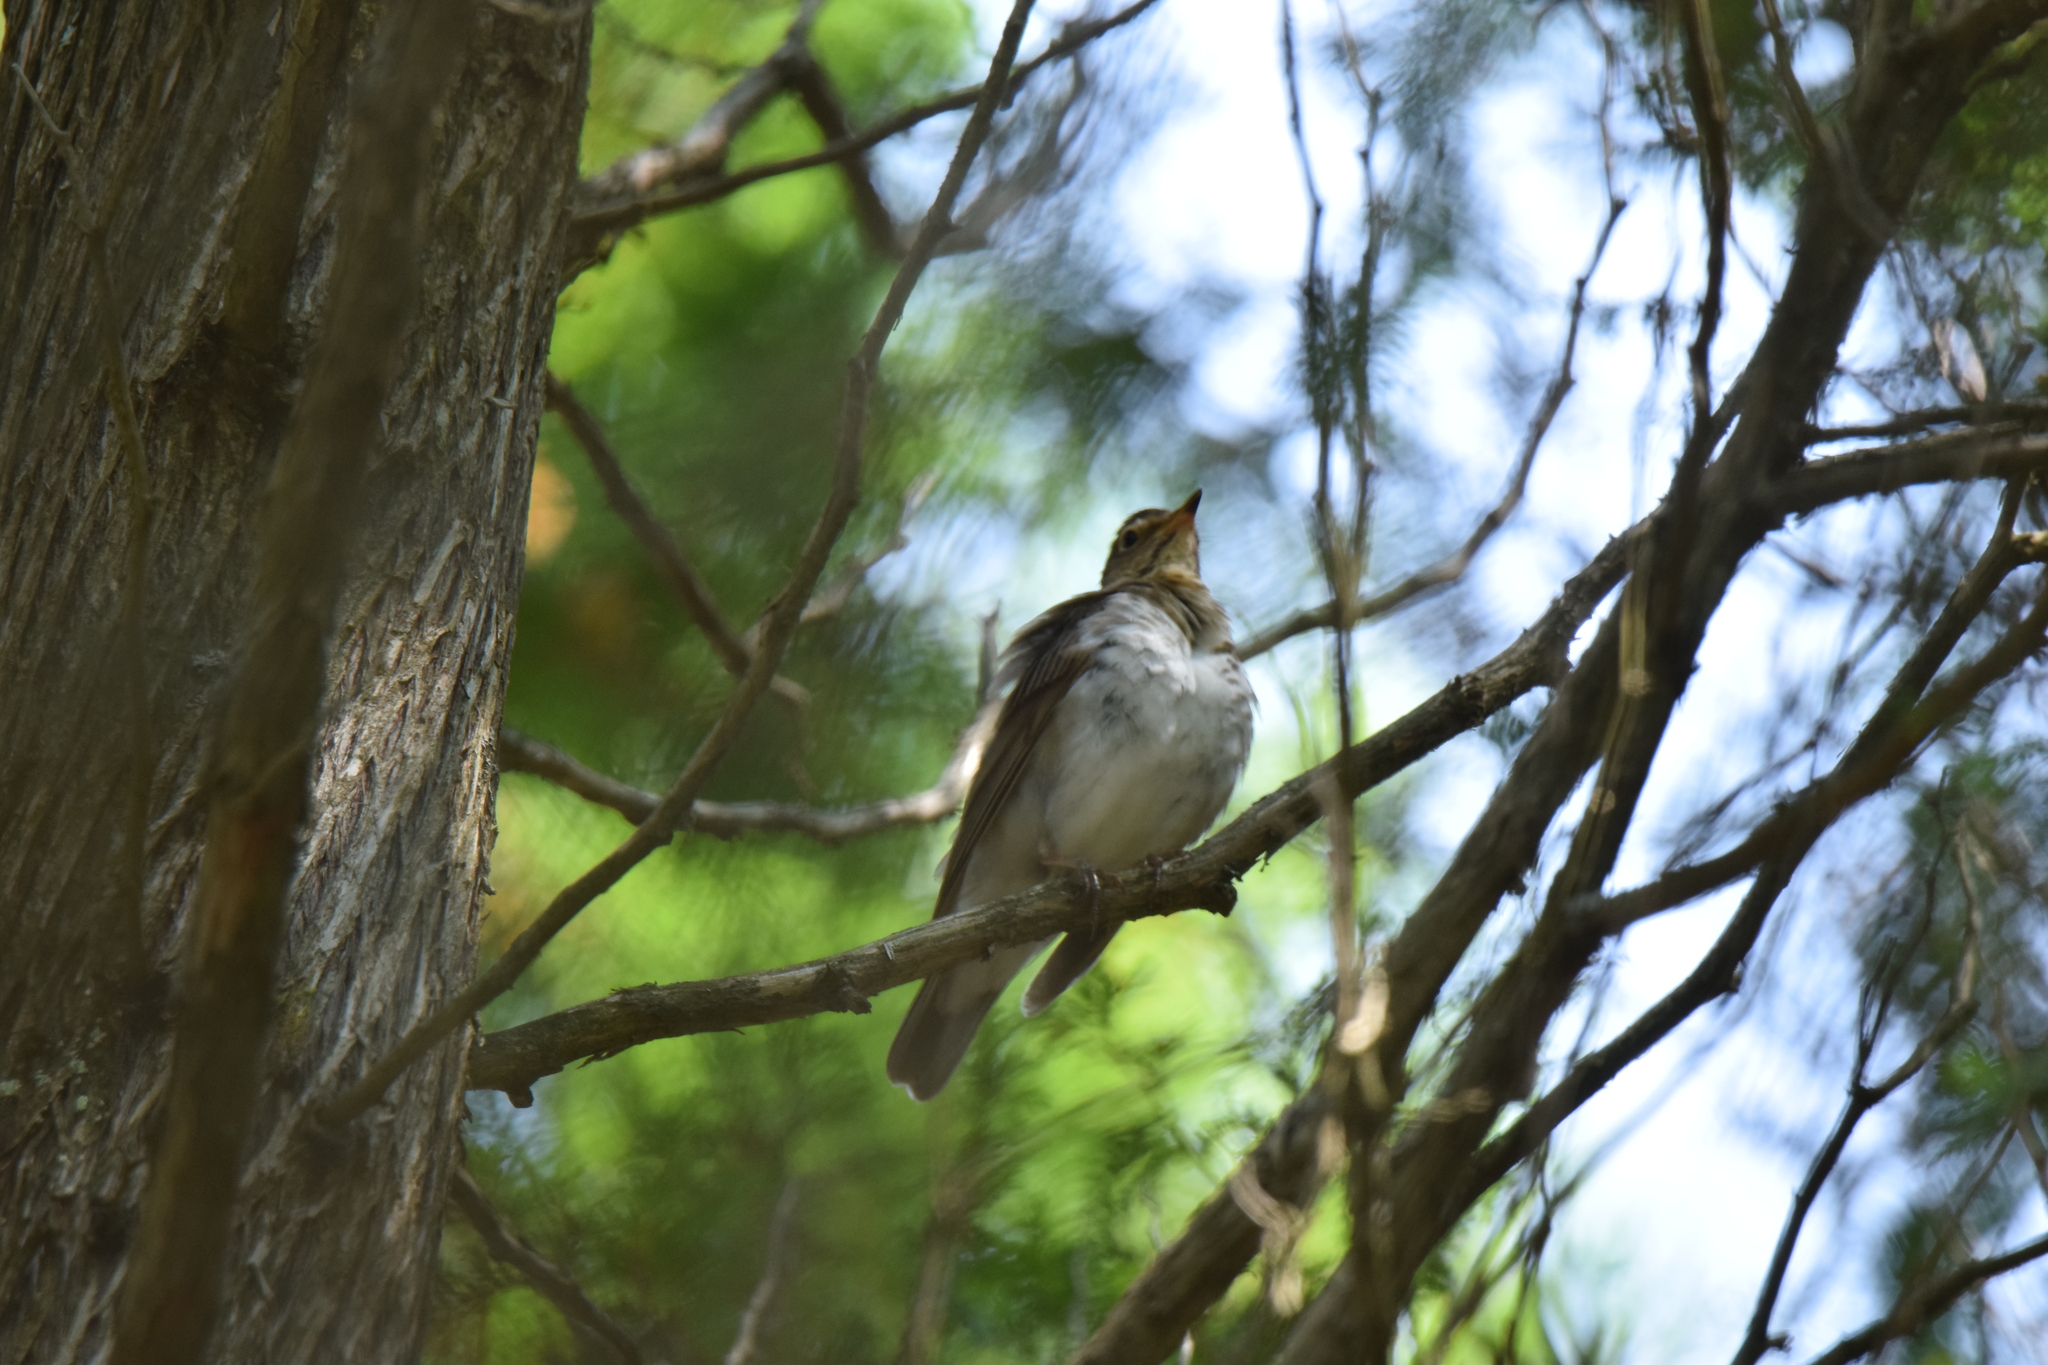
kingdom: Animalia
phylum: Chordata
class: Aves
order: Passeriformes
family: Turdidae
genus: Catharus
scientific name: Catharus ustulatus
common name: Swainson's thrush
